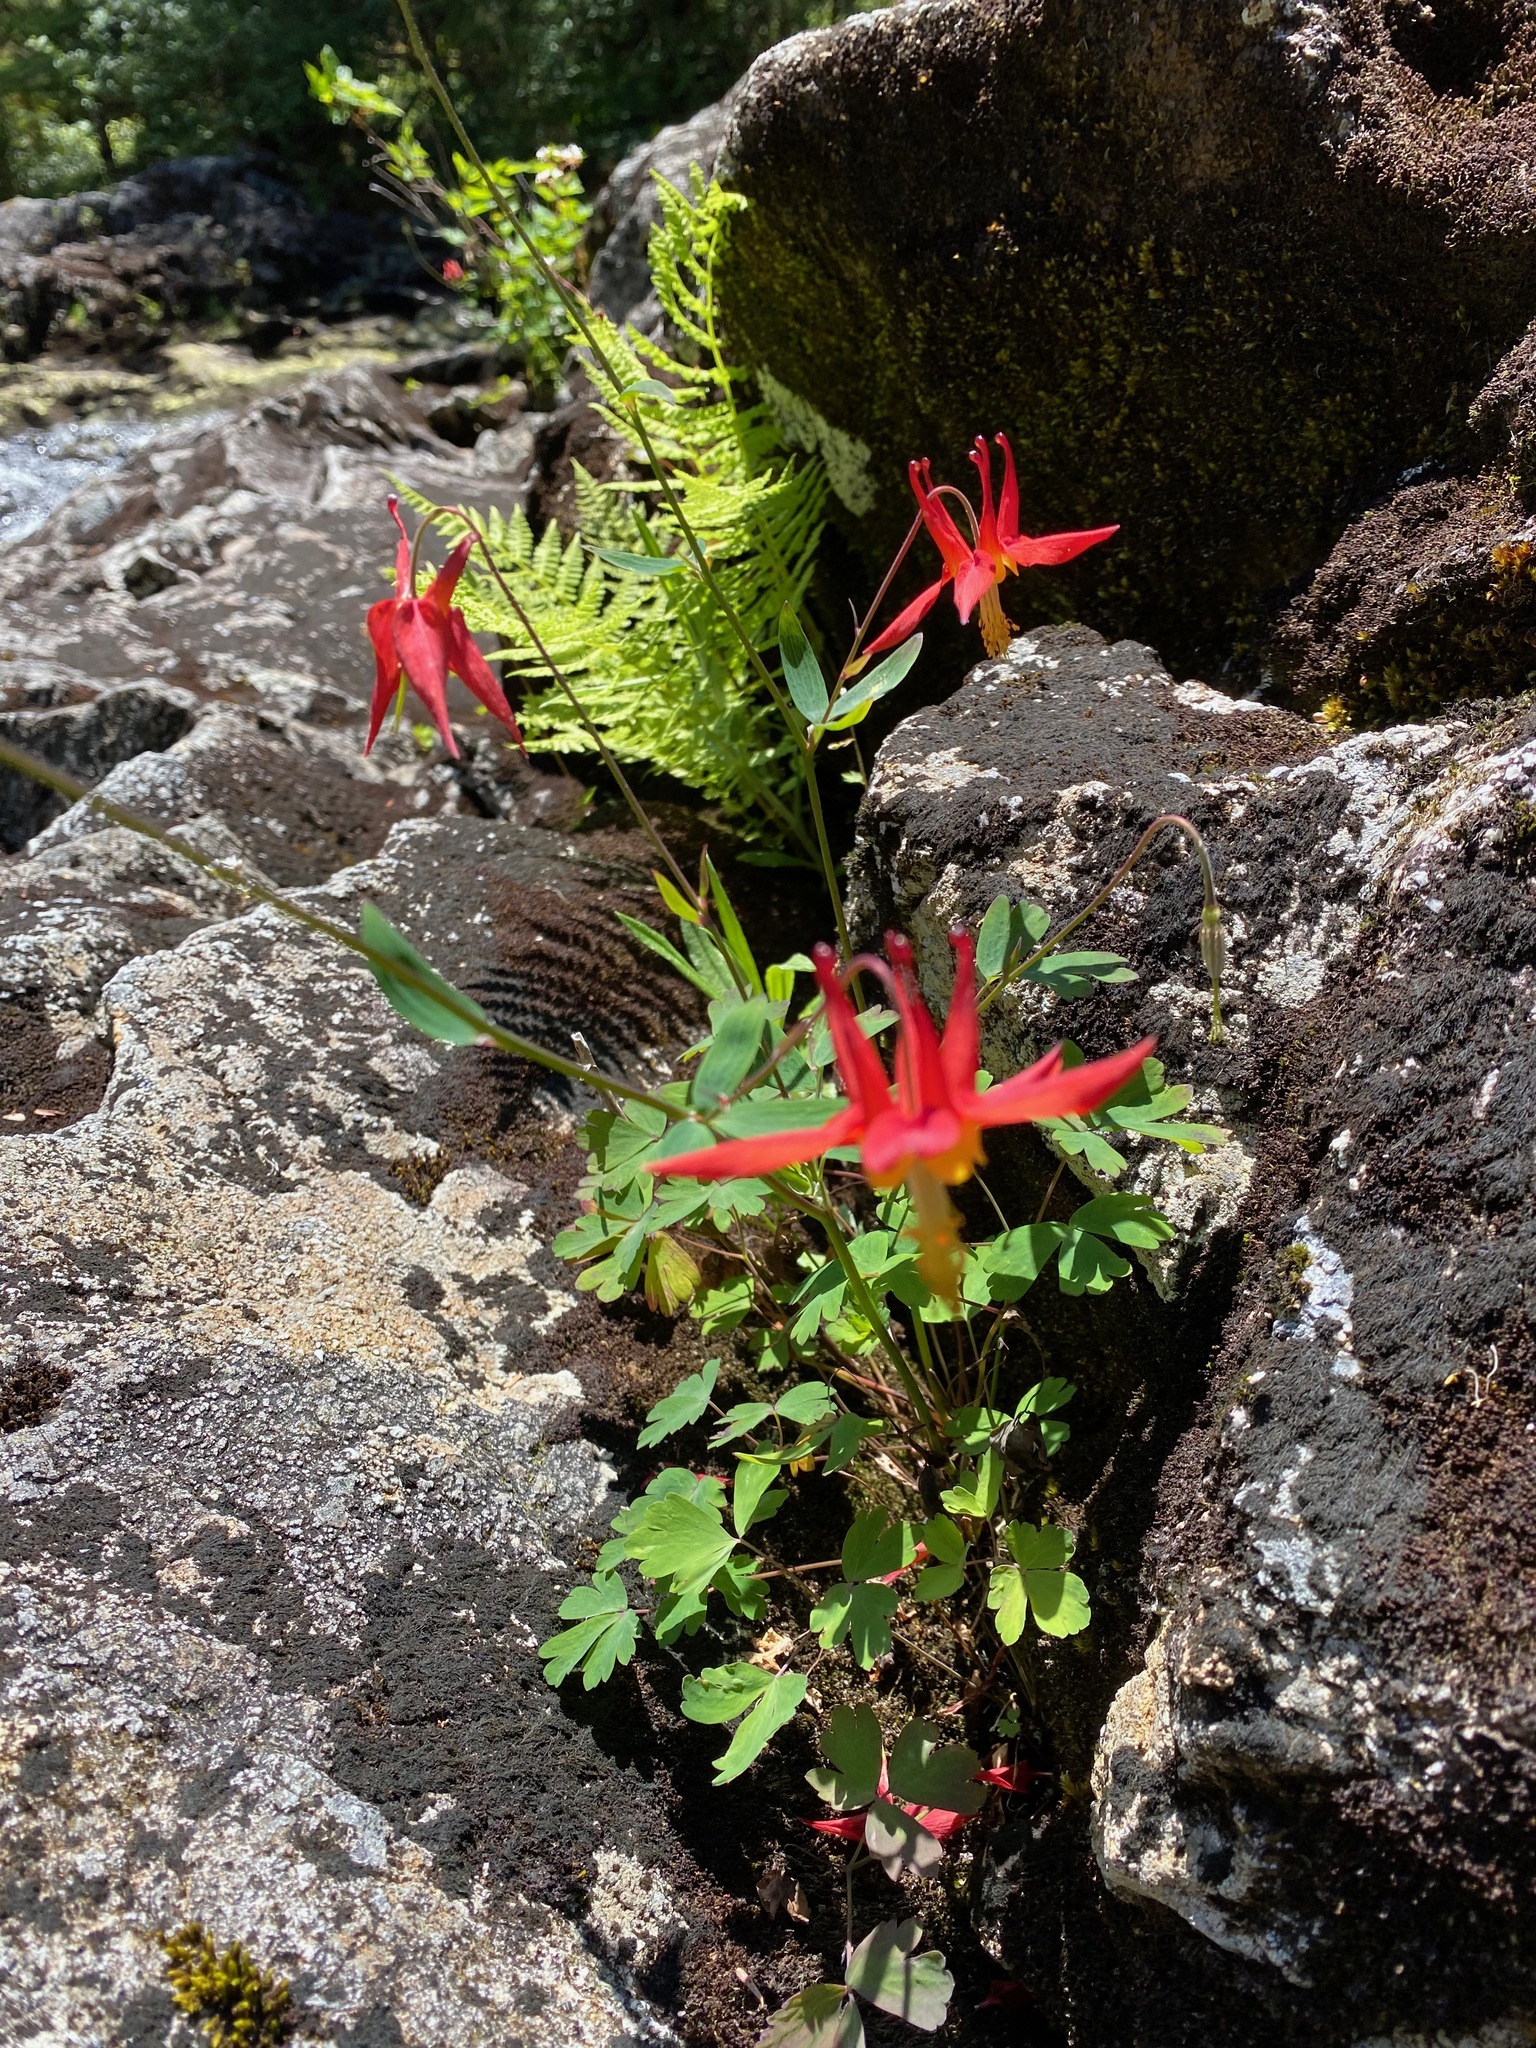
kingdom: Plantae
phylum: Tracheophyta
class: Magnoliopsida
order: Ranunculales
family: Ranunculaceae
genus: Aquilegia
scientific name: Aquilegia formosa
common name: Sitka columbine
